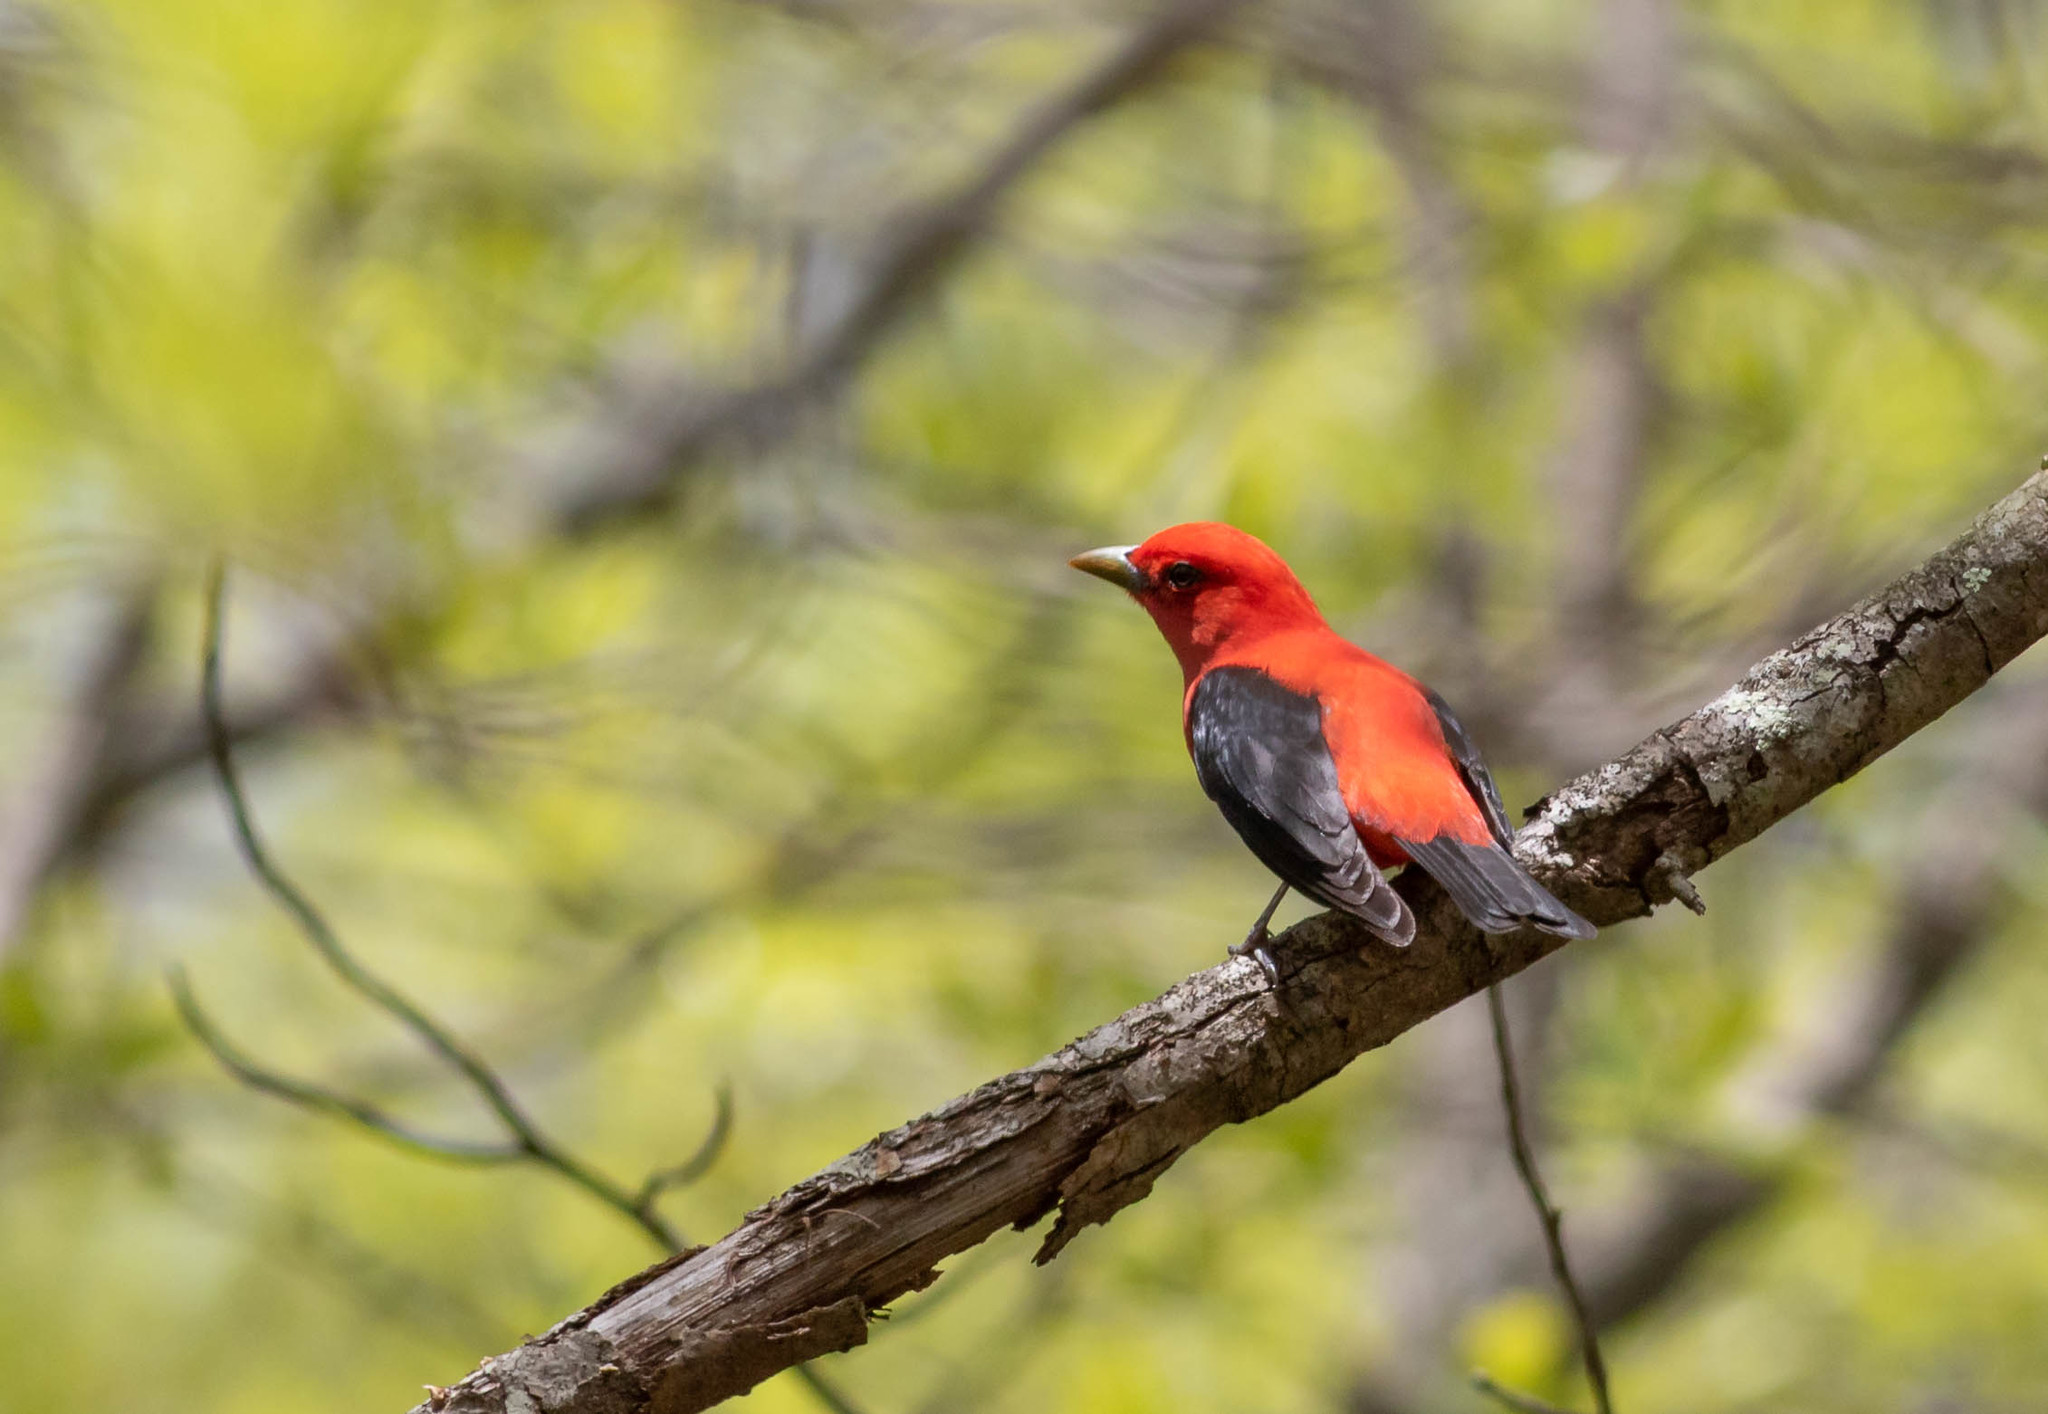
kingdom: Animalia
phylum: Chordata
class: Aves
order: Passeriformes
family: Cardinalidae
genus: Piranga
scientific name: Piranga olivacea
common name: Scarlet tanager
